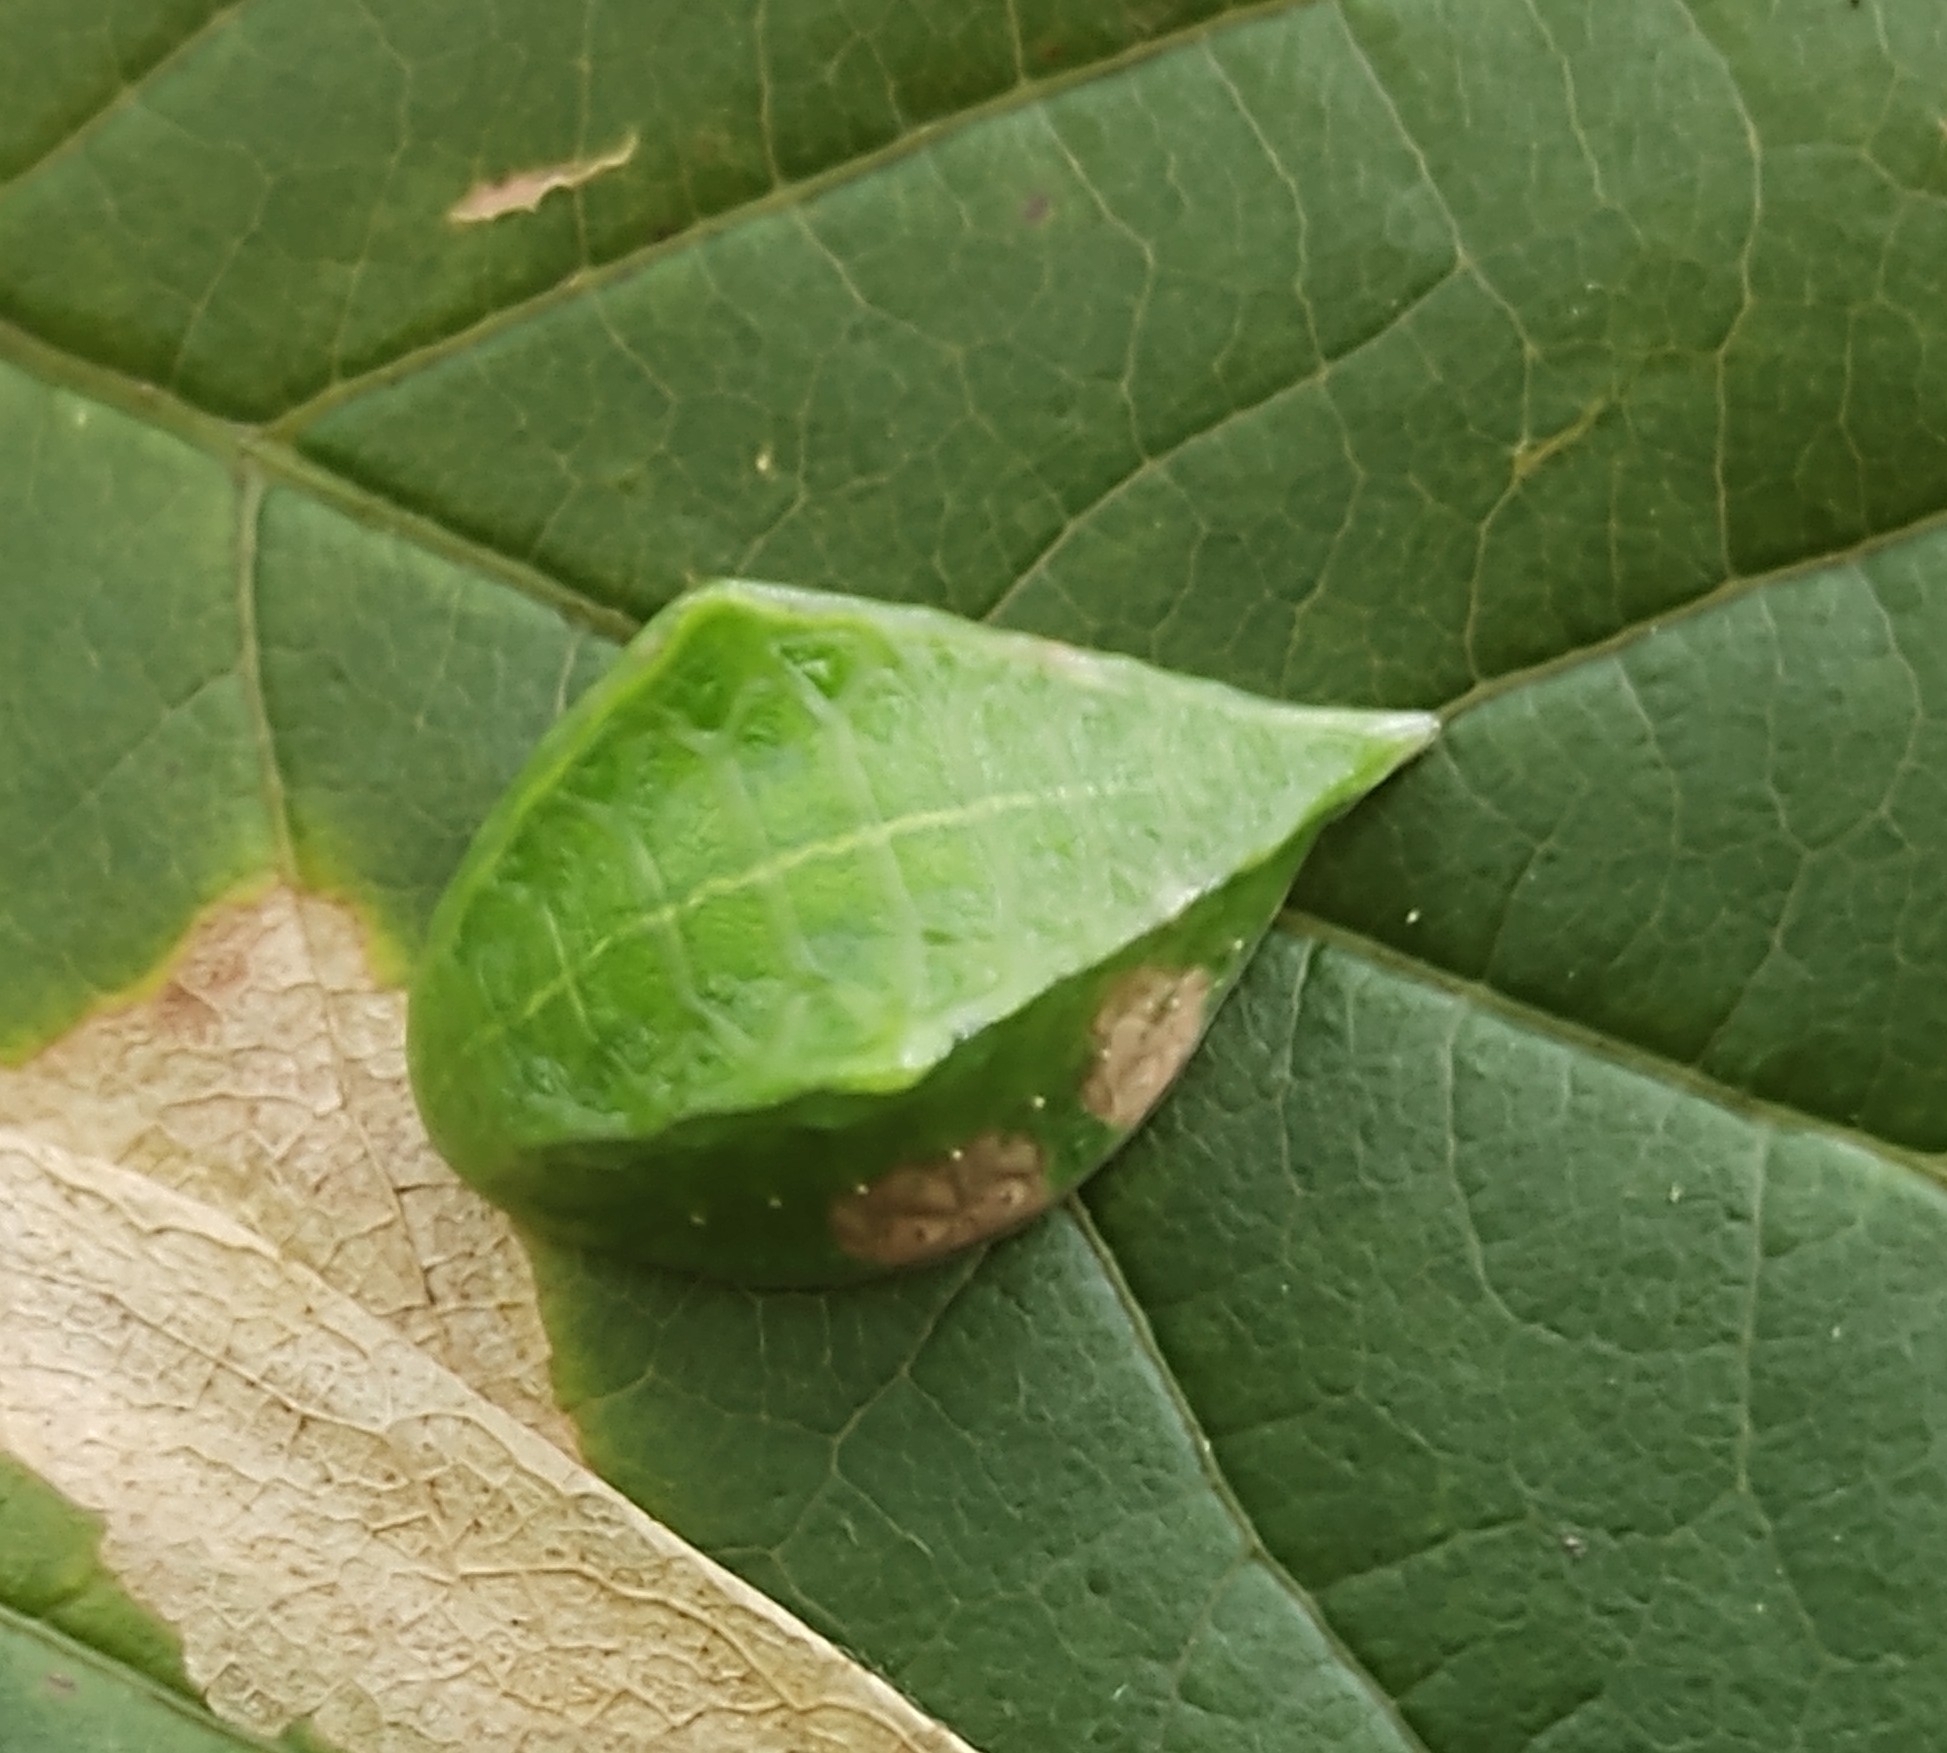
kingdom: Animalia
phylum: Arthropoda
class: Insecta
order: Lepidoptera
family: Limacodidae
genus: Prolimacodes
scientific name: Prolimacodes badia
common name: Skiff moth
